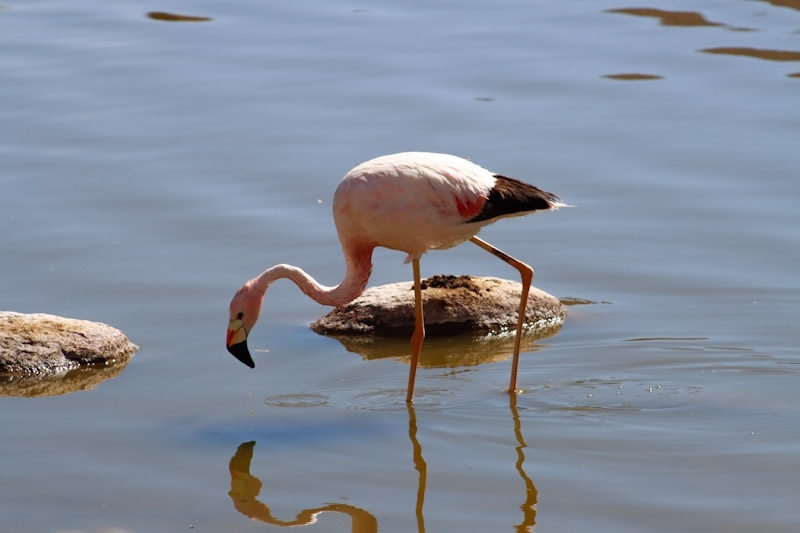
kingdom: Animalia
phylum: Chordata
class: Aves
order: Phoenicopteriformes
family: Phoenicopteridae
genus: Phoenicoparrus
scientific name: Phoenicoparrus andinus
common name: Andean flamingo
